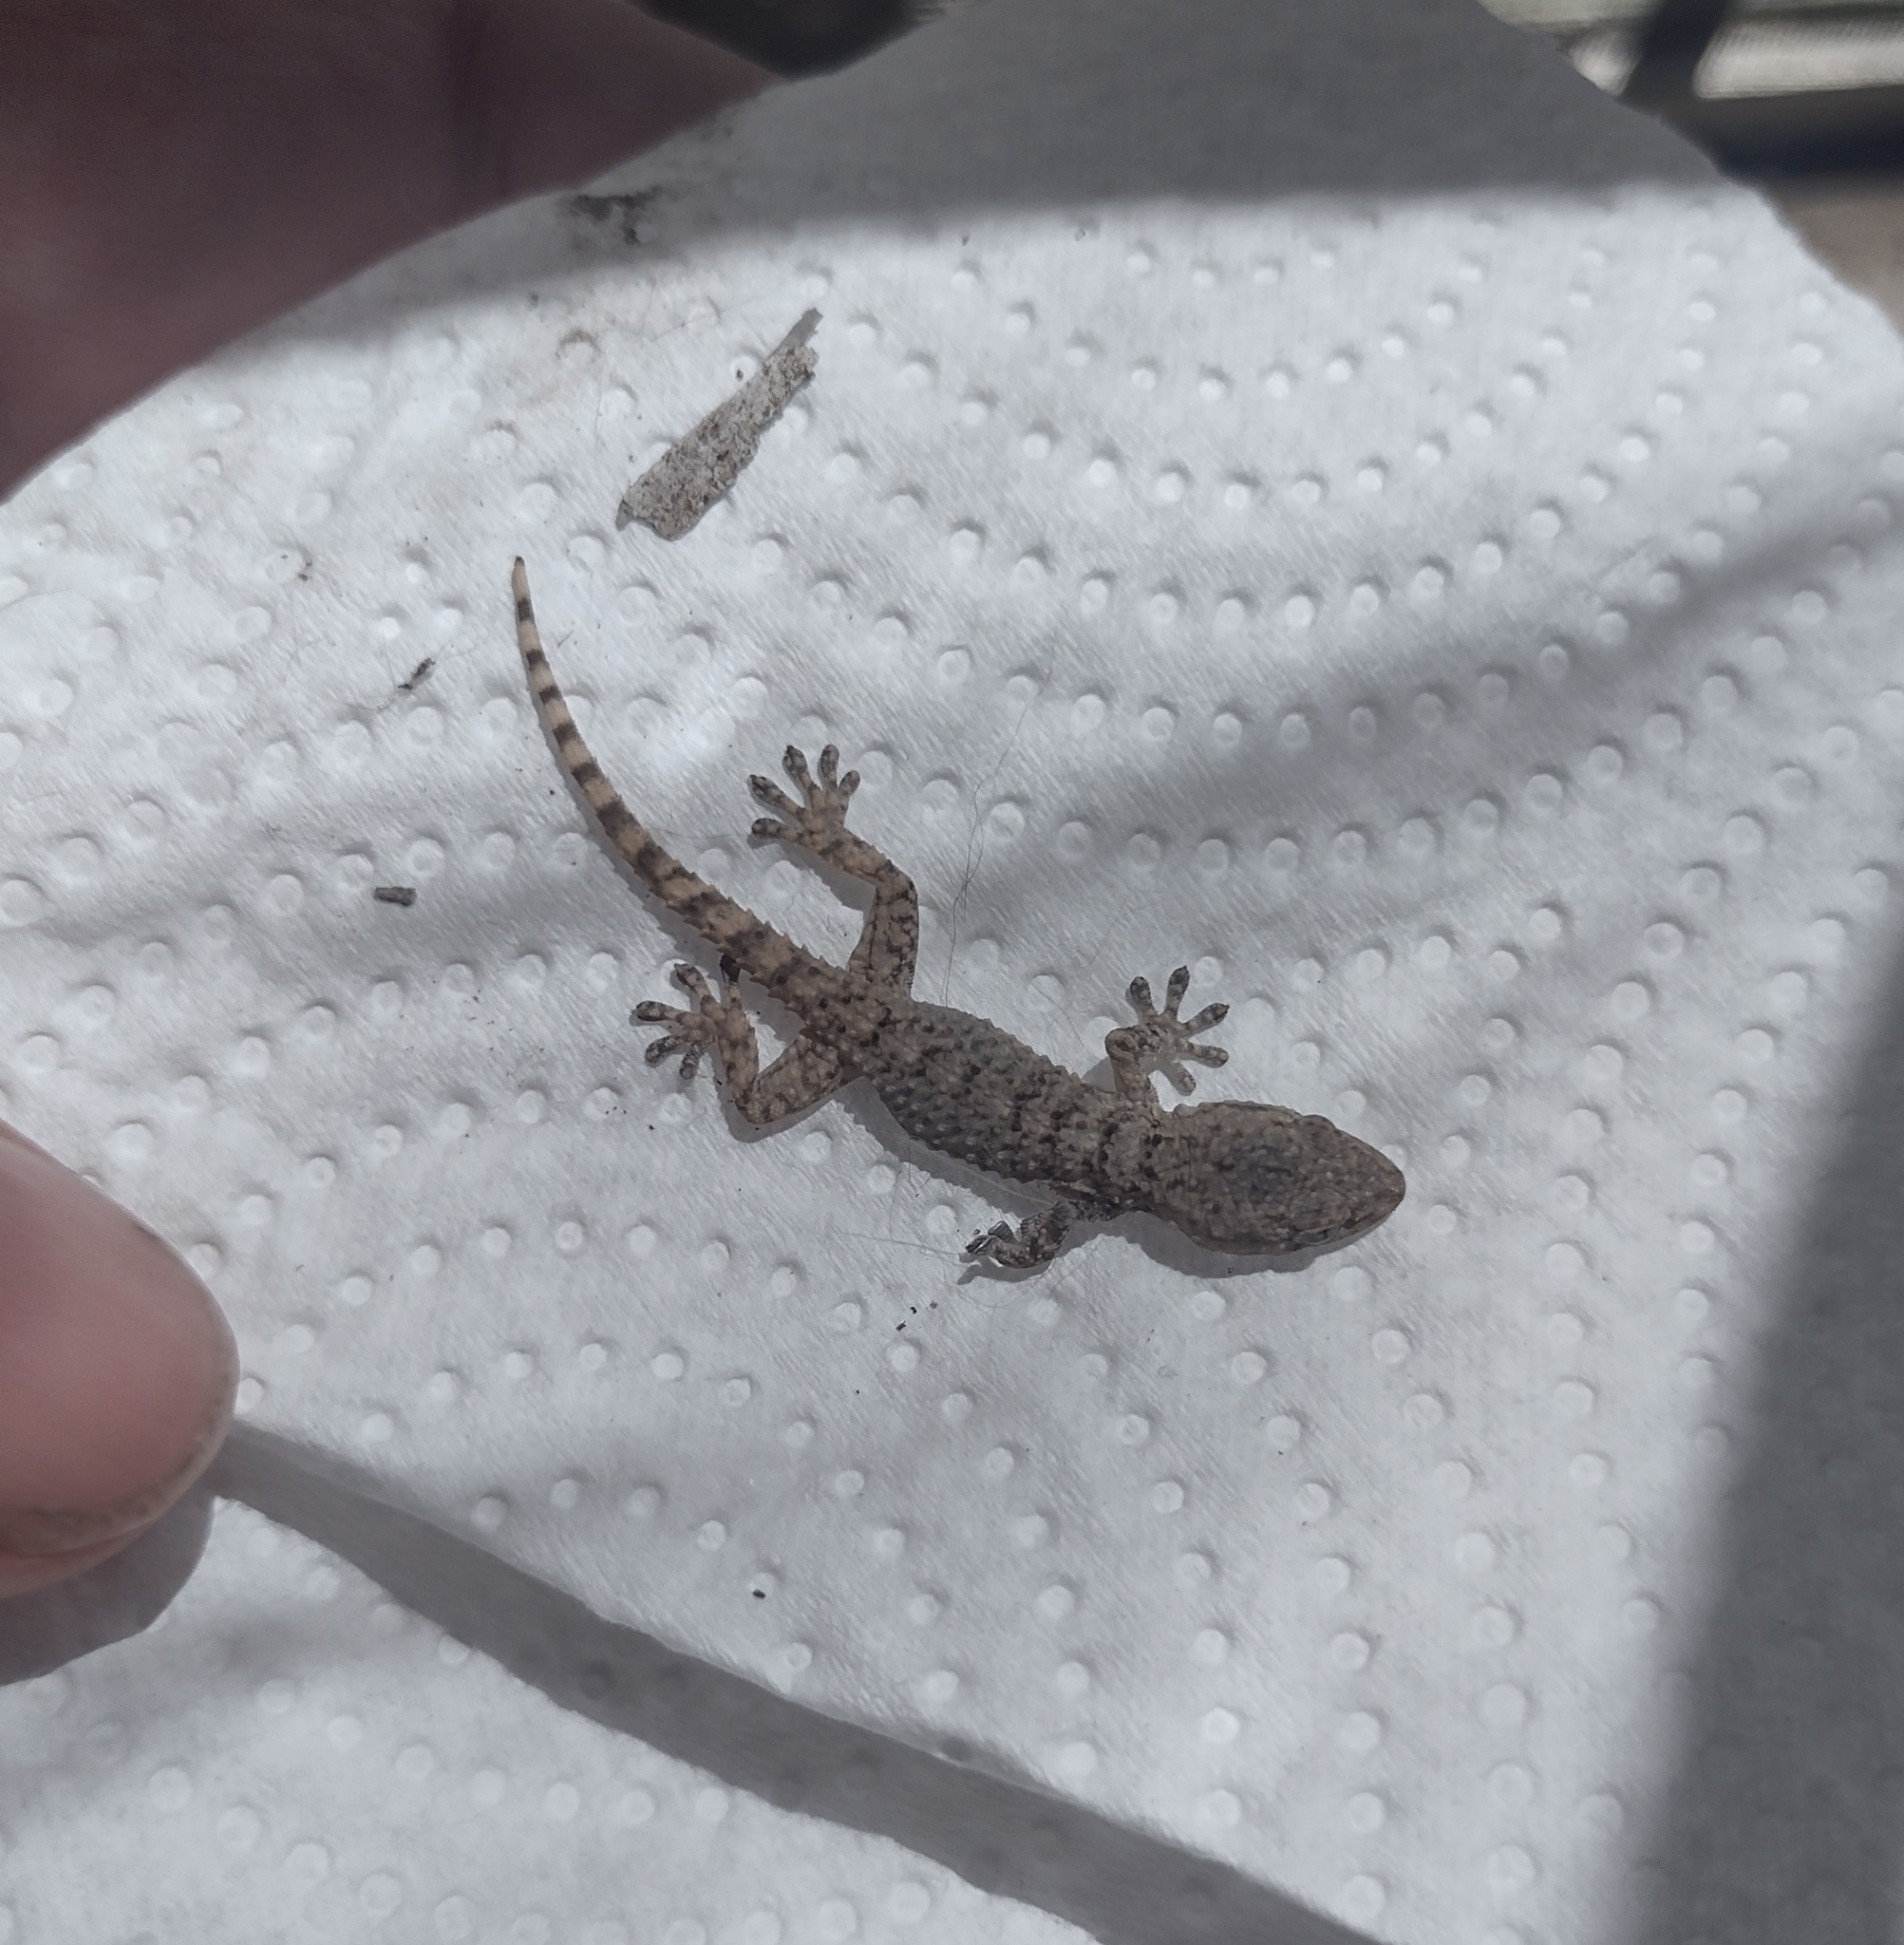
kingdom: Animalia
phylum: Chordata
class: Squamata
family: Phyllodactylidae
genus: Tarentola
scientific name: Tarentola mauritanica
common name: Moorish gecko
